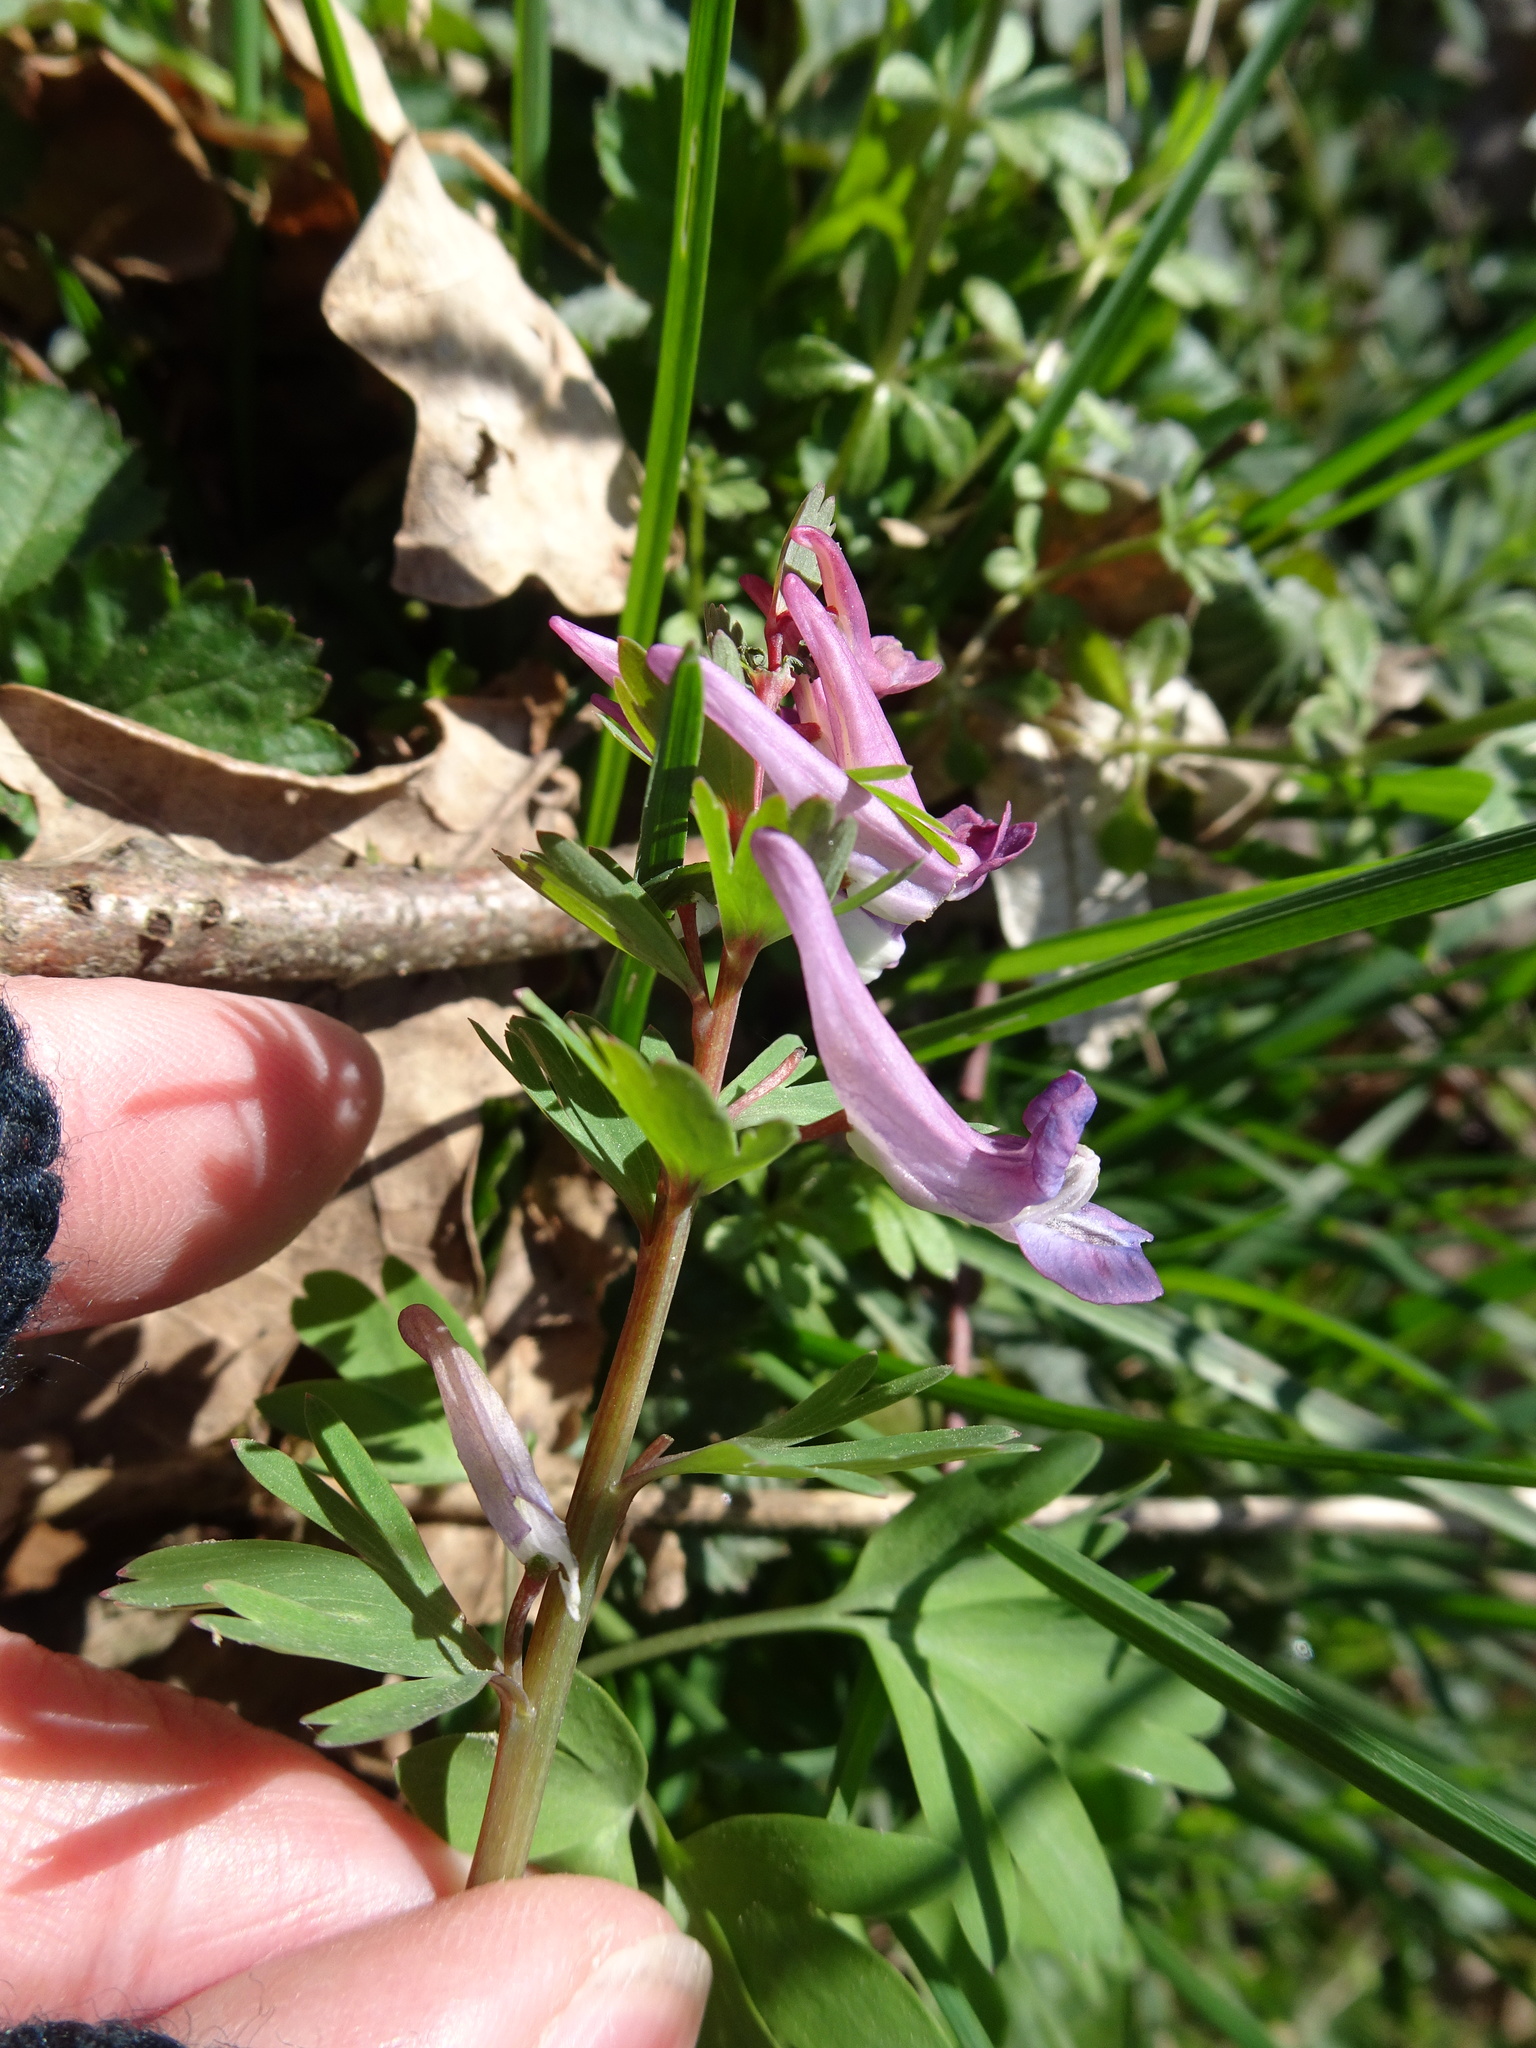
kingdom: Plantae
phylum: Tracheophyta
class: Magnoliopsida
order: Ranunculales
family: Papaveraceae
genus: Corydalis
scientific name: Corydalis solida
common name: Bird-in-a-bush
